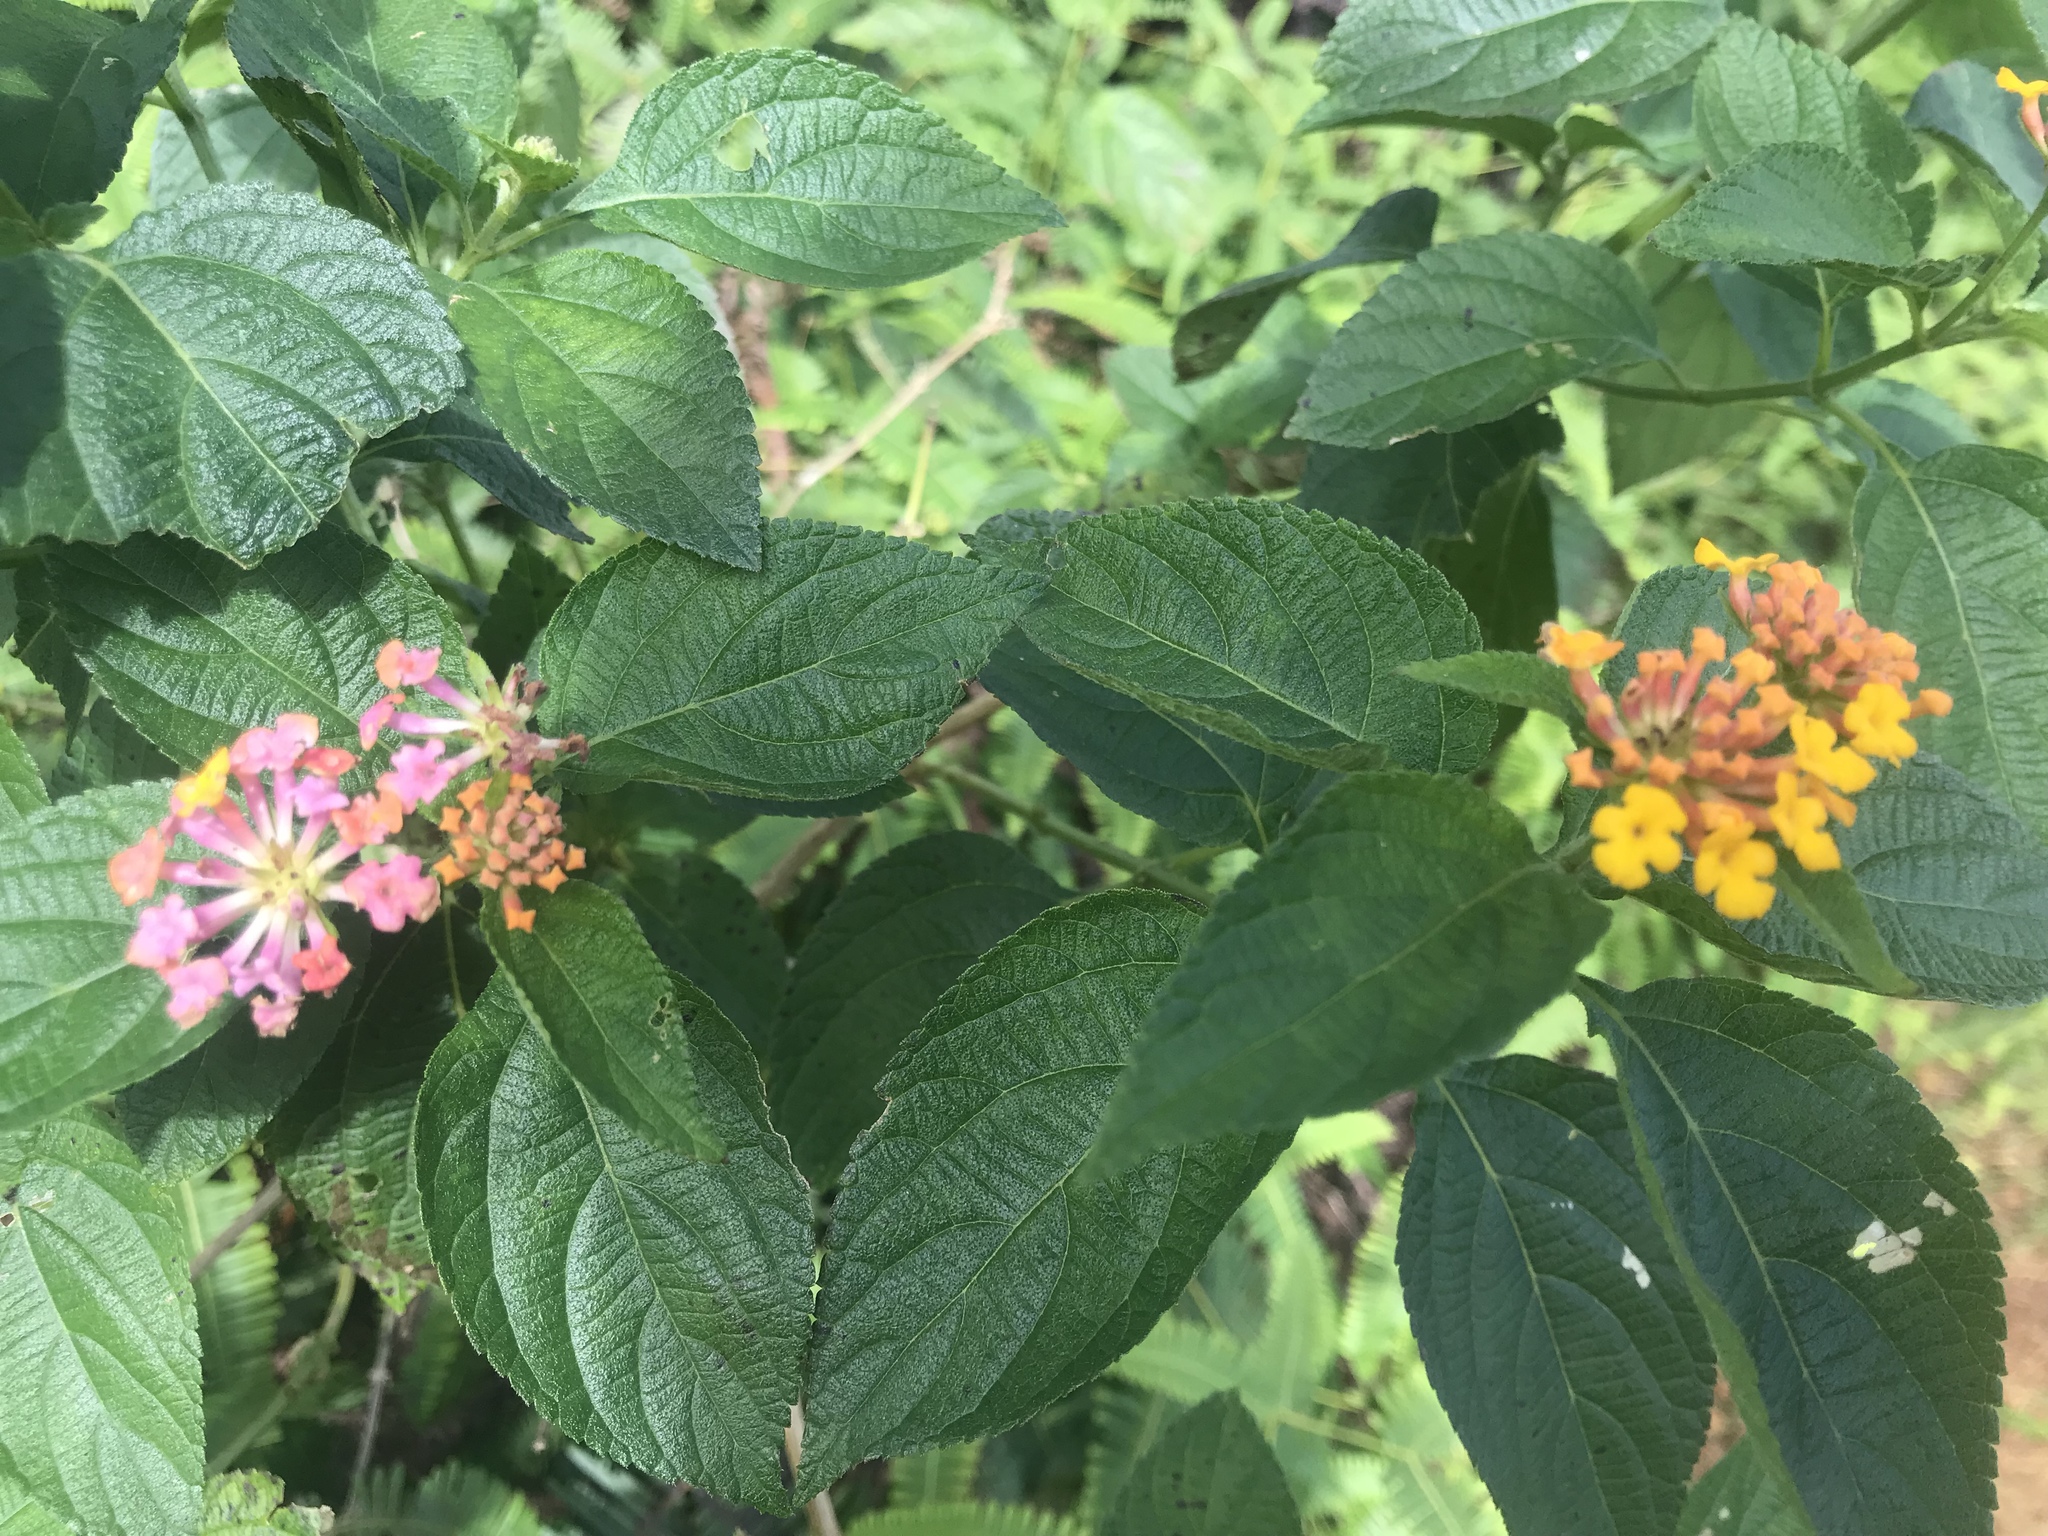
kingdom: Plantae
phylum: Tracheophyta
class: Magnoliopsida
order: Lamiales
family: Verbenaceae
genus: Lantana
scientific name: Lantana camara
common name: Lantana
